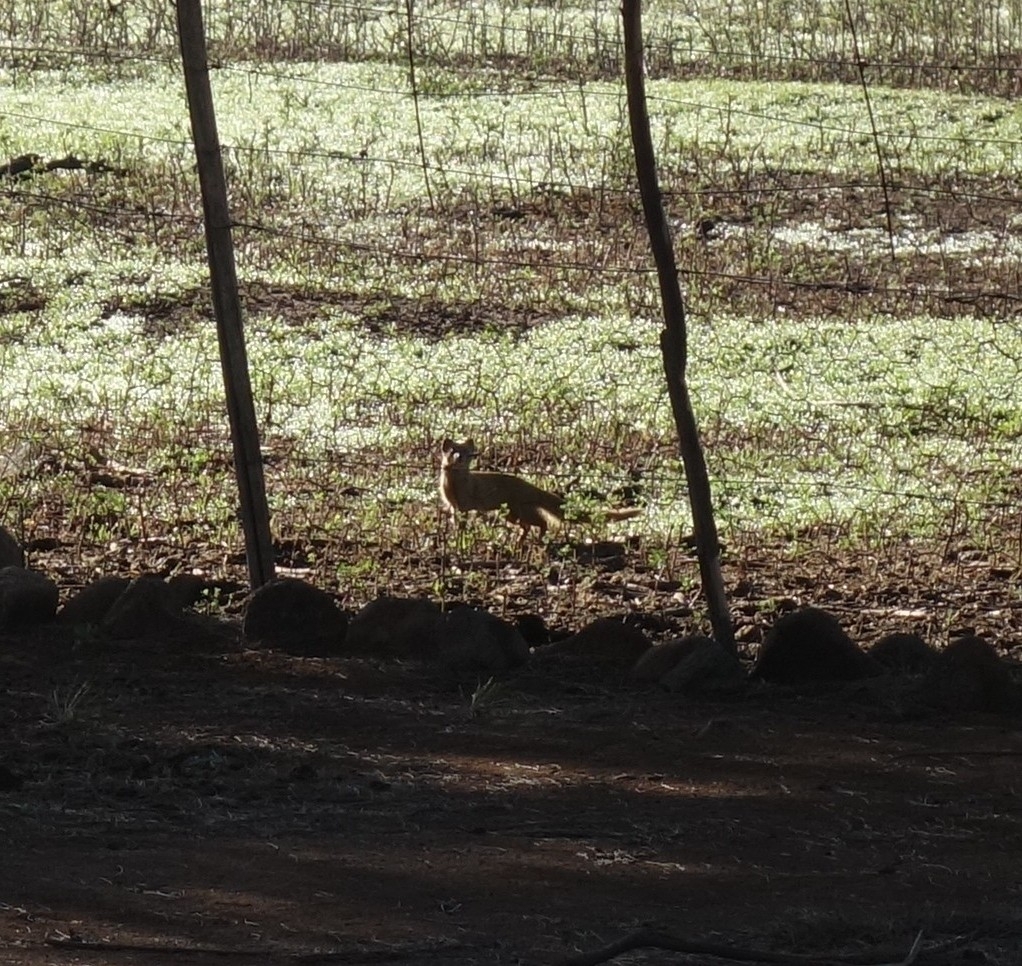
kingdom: Animalia
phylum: Chordata
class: Mammalia
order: Carnivora
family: Herpestidae
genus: Cynictis
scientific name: Cynictis penicillata
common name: Yellow mongoose
